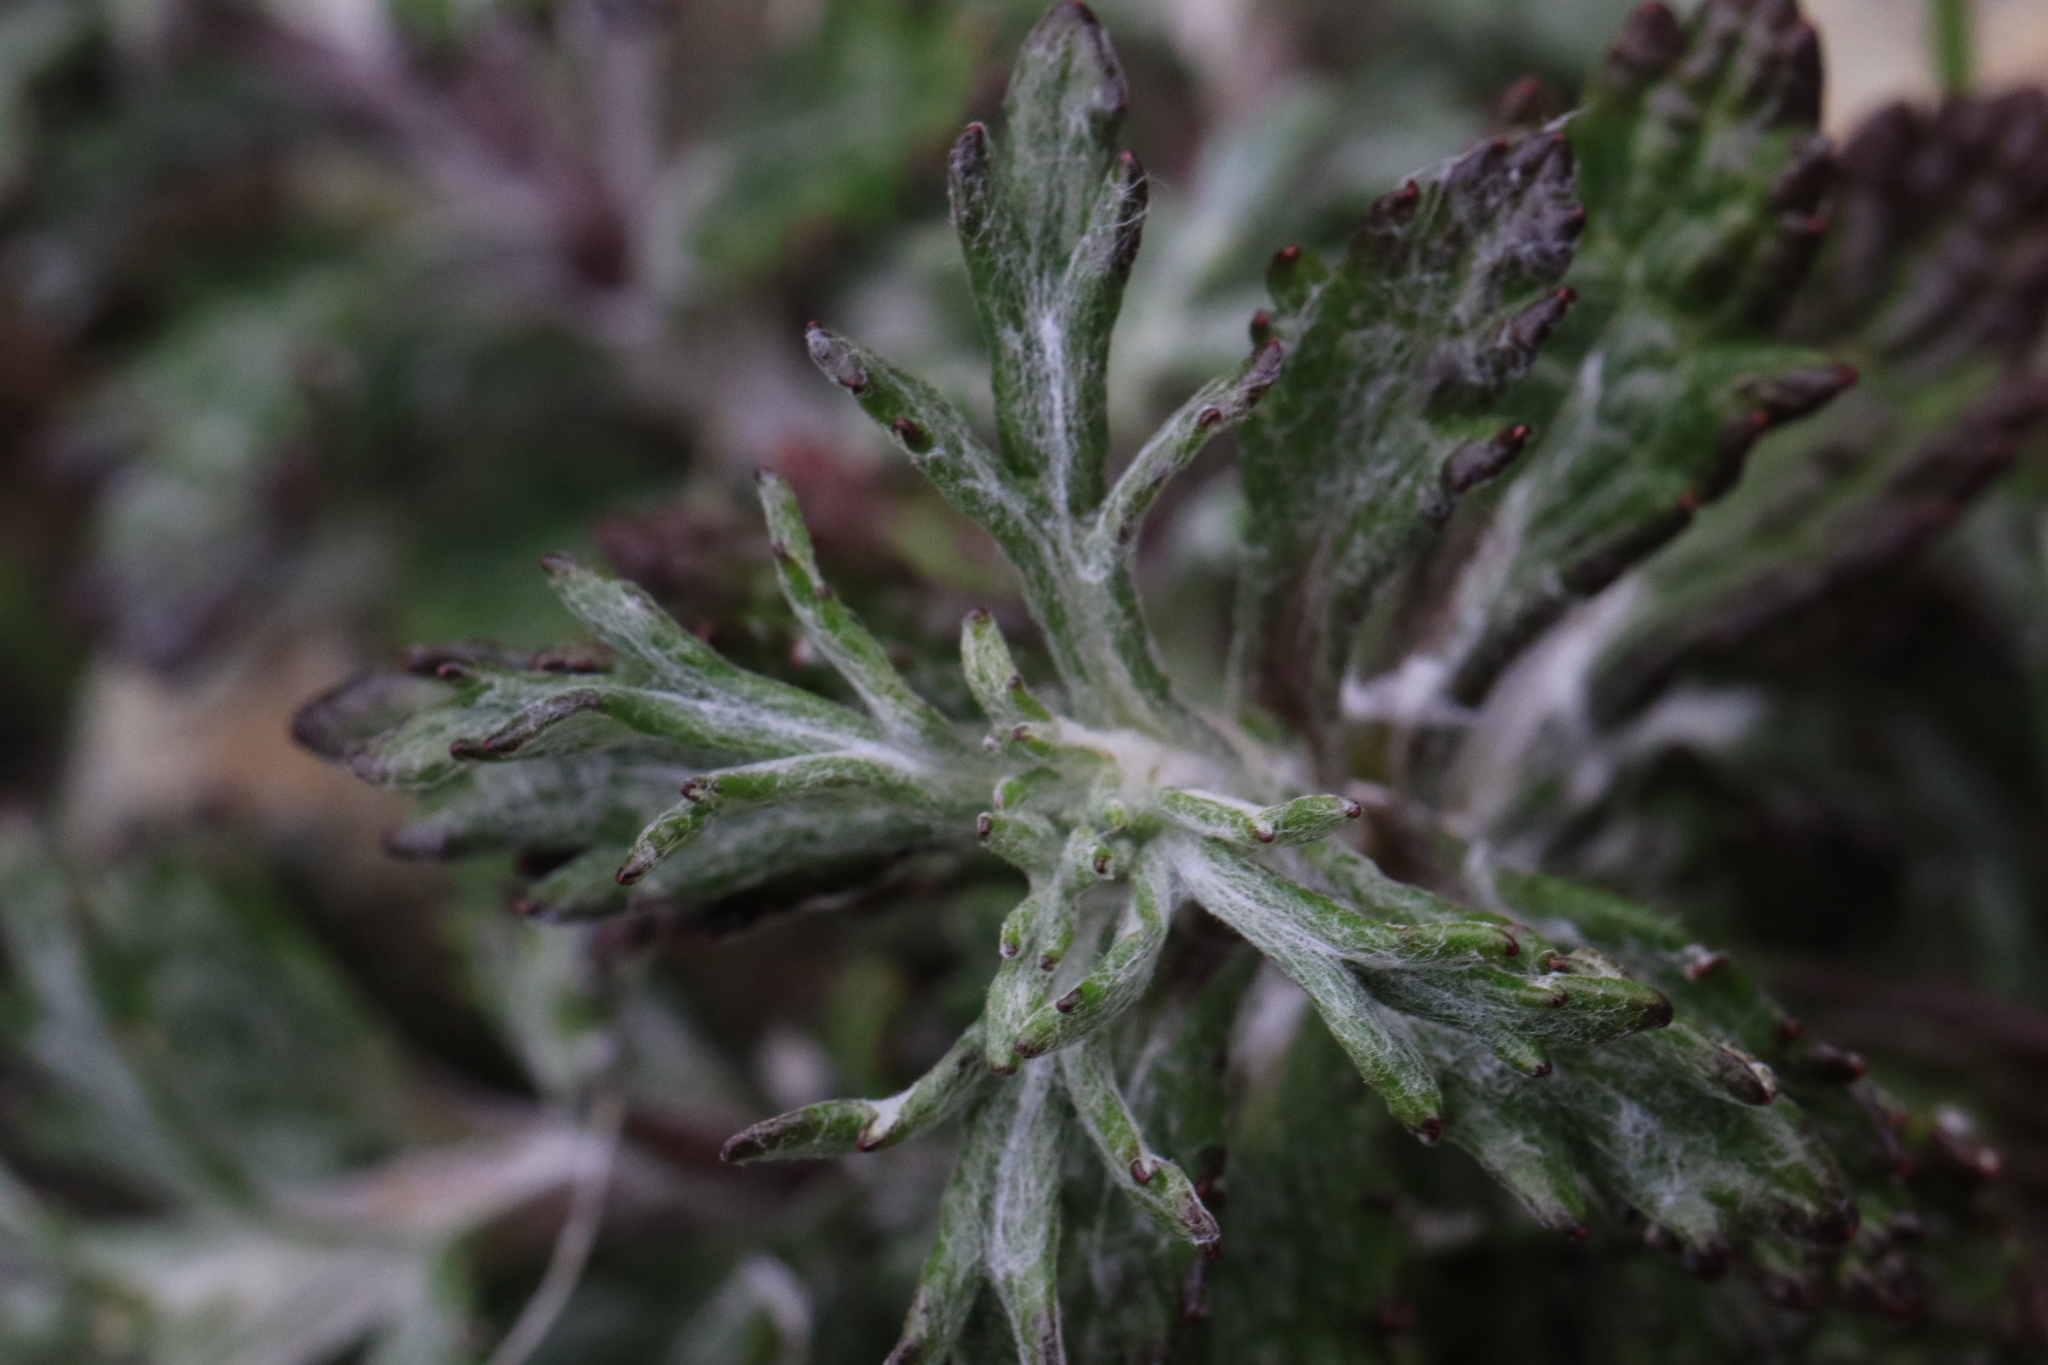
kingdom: Plantae
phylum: Tracheophyta
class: Magnoliopsida
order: Asterales
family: Asteraceae
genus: Eriophyllum
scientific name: Eriophyllum lanatum
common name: Common woolly-sunflower
